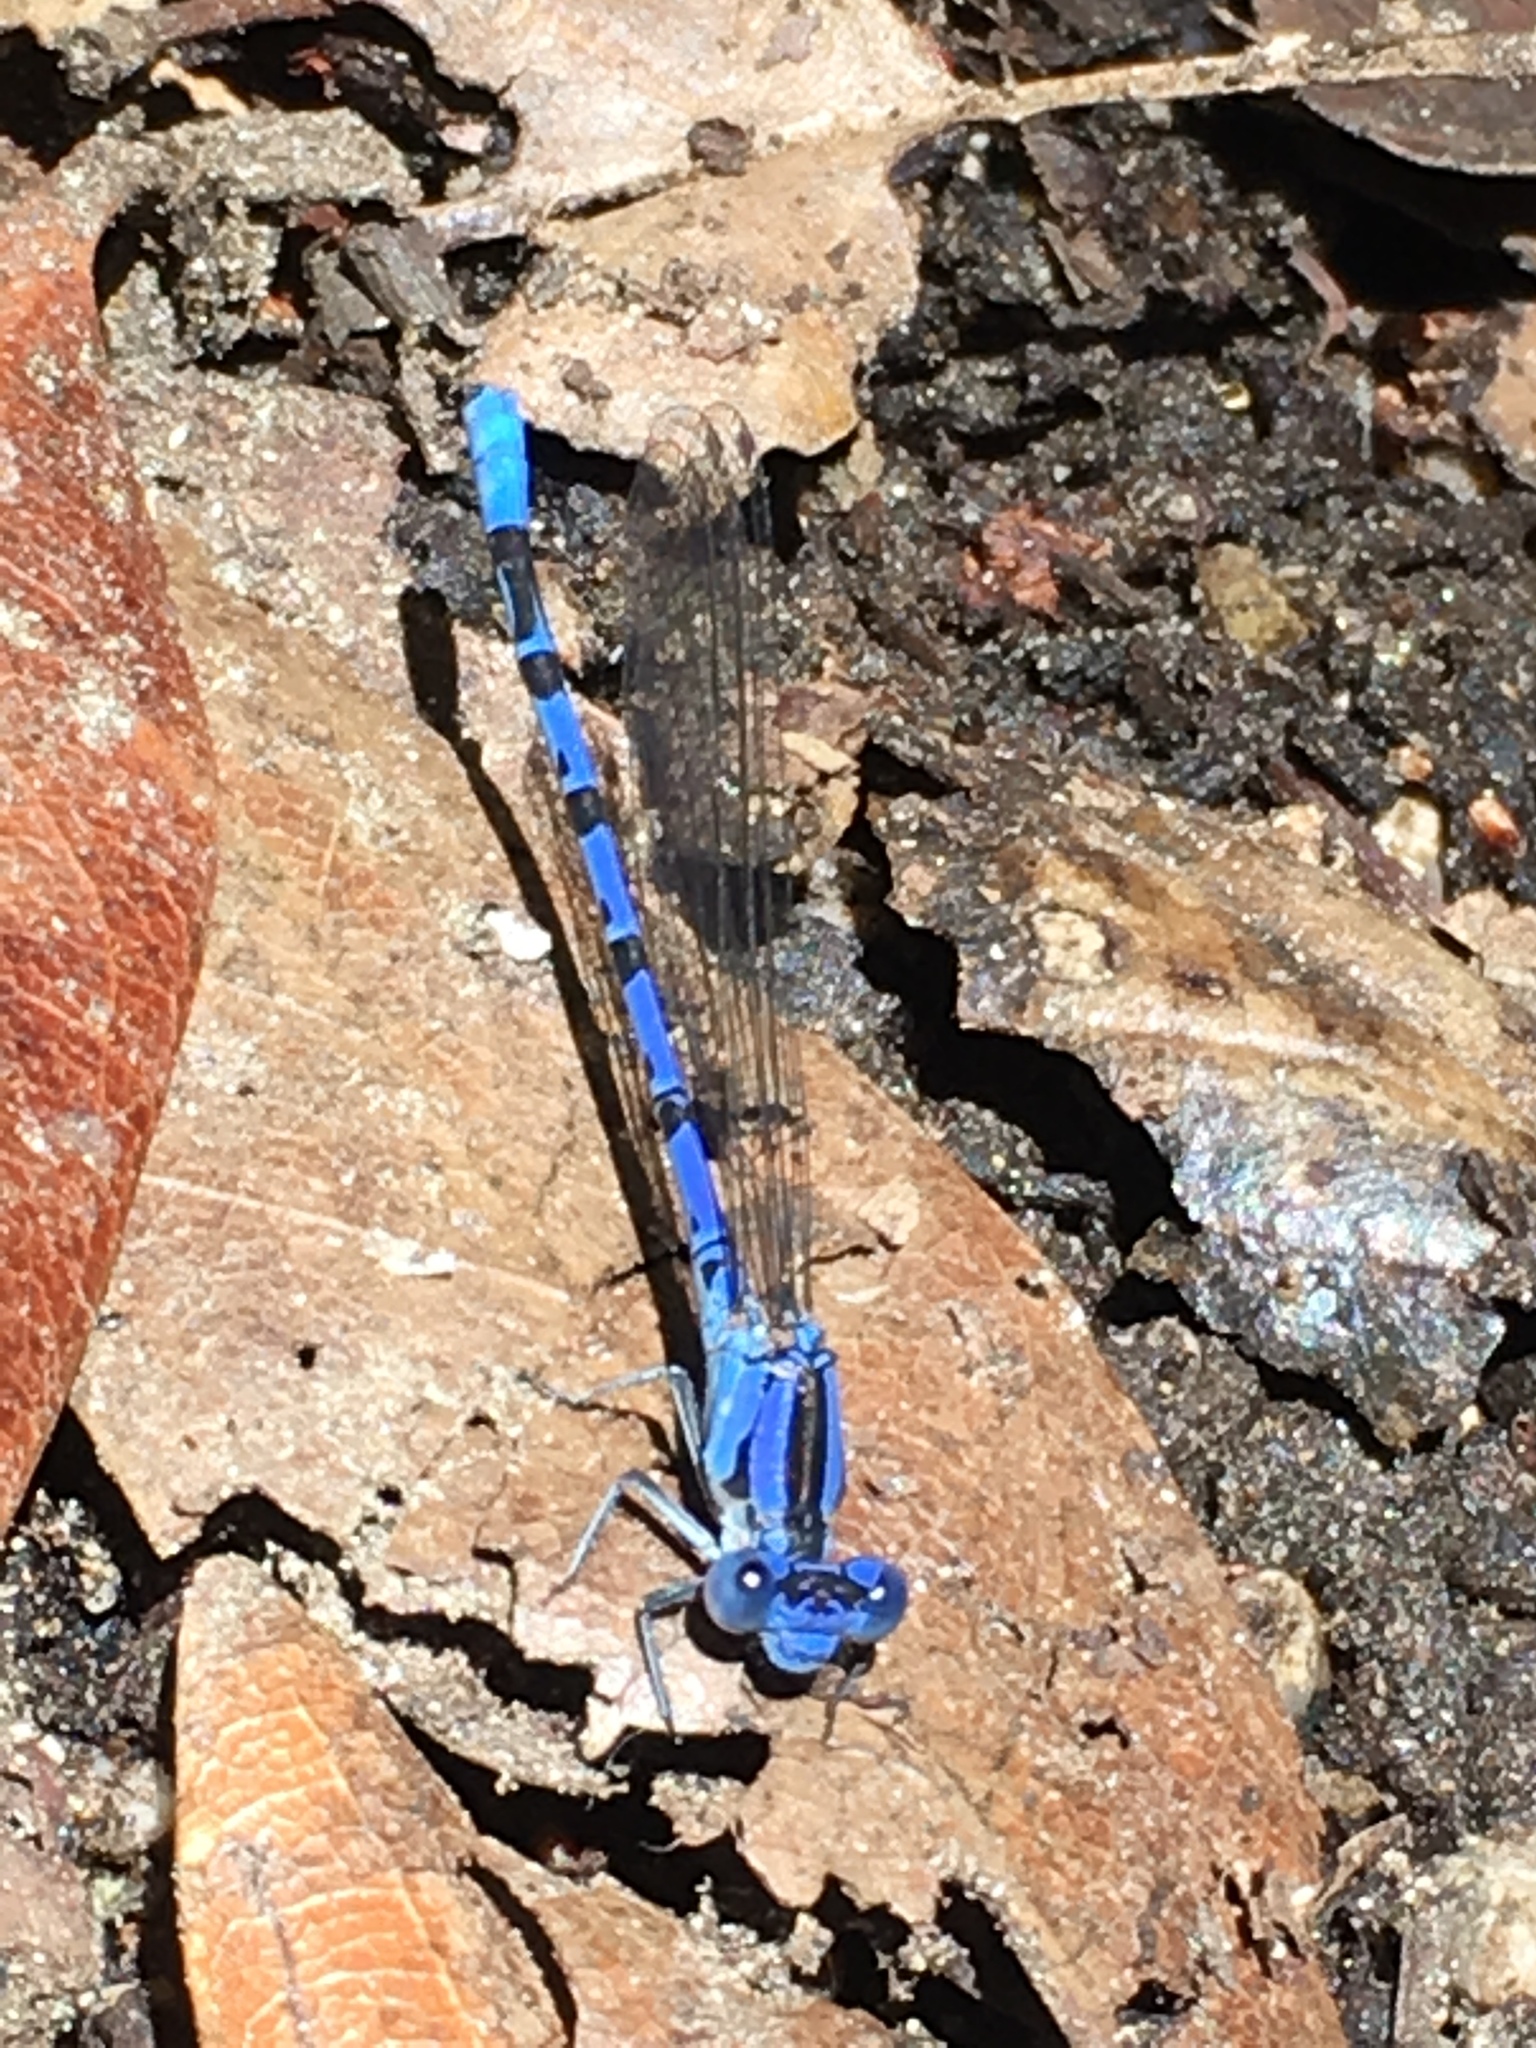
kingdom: Animalia
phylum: Arthropoda
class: Insecta
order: Odonata
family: Coenagrionidae
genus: Argia
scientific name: Argia vivida
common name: Vivid dancer
